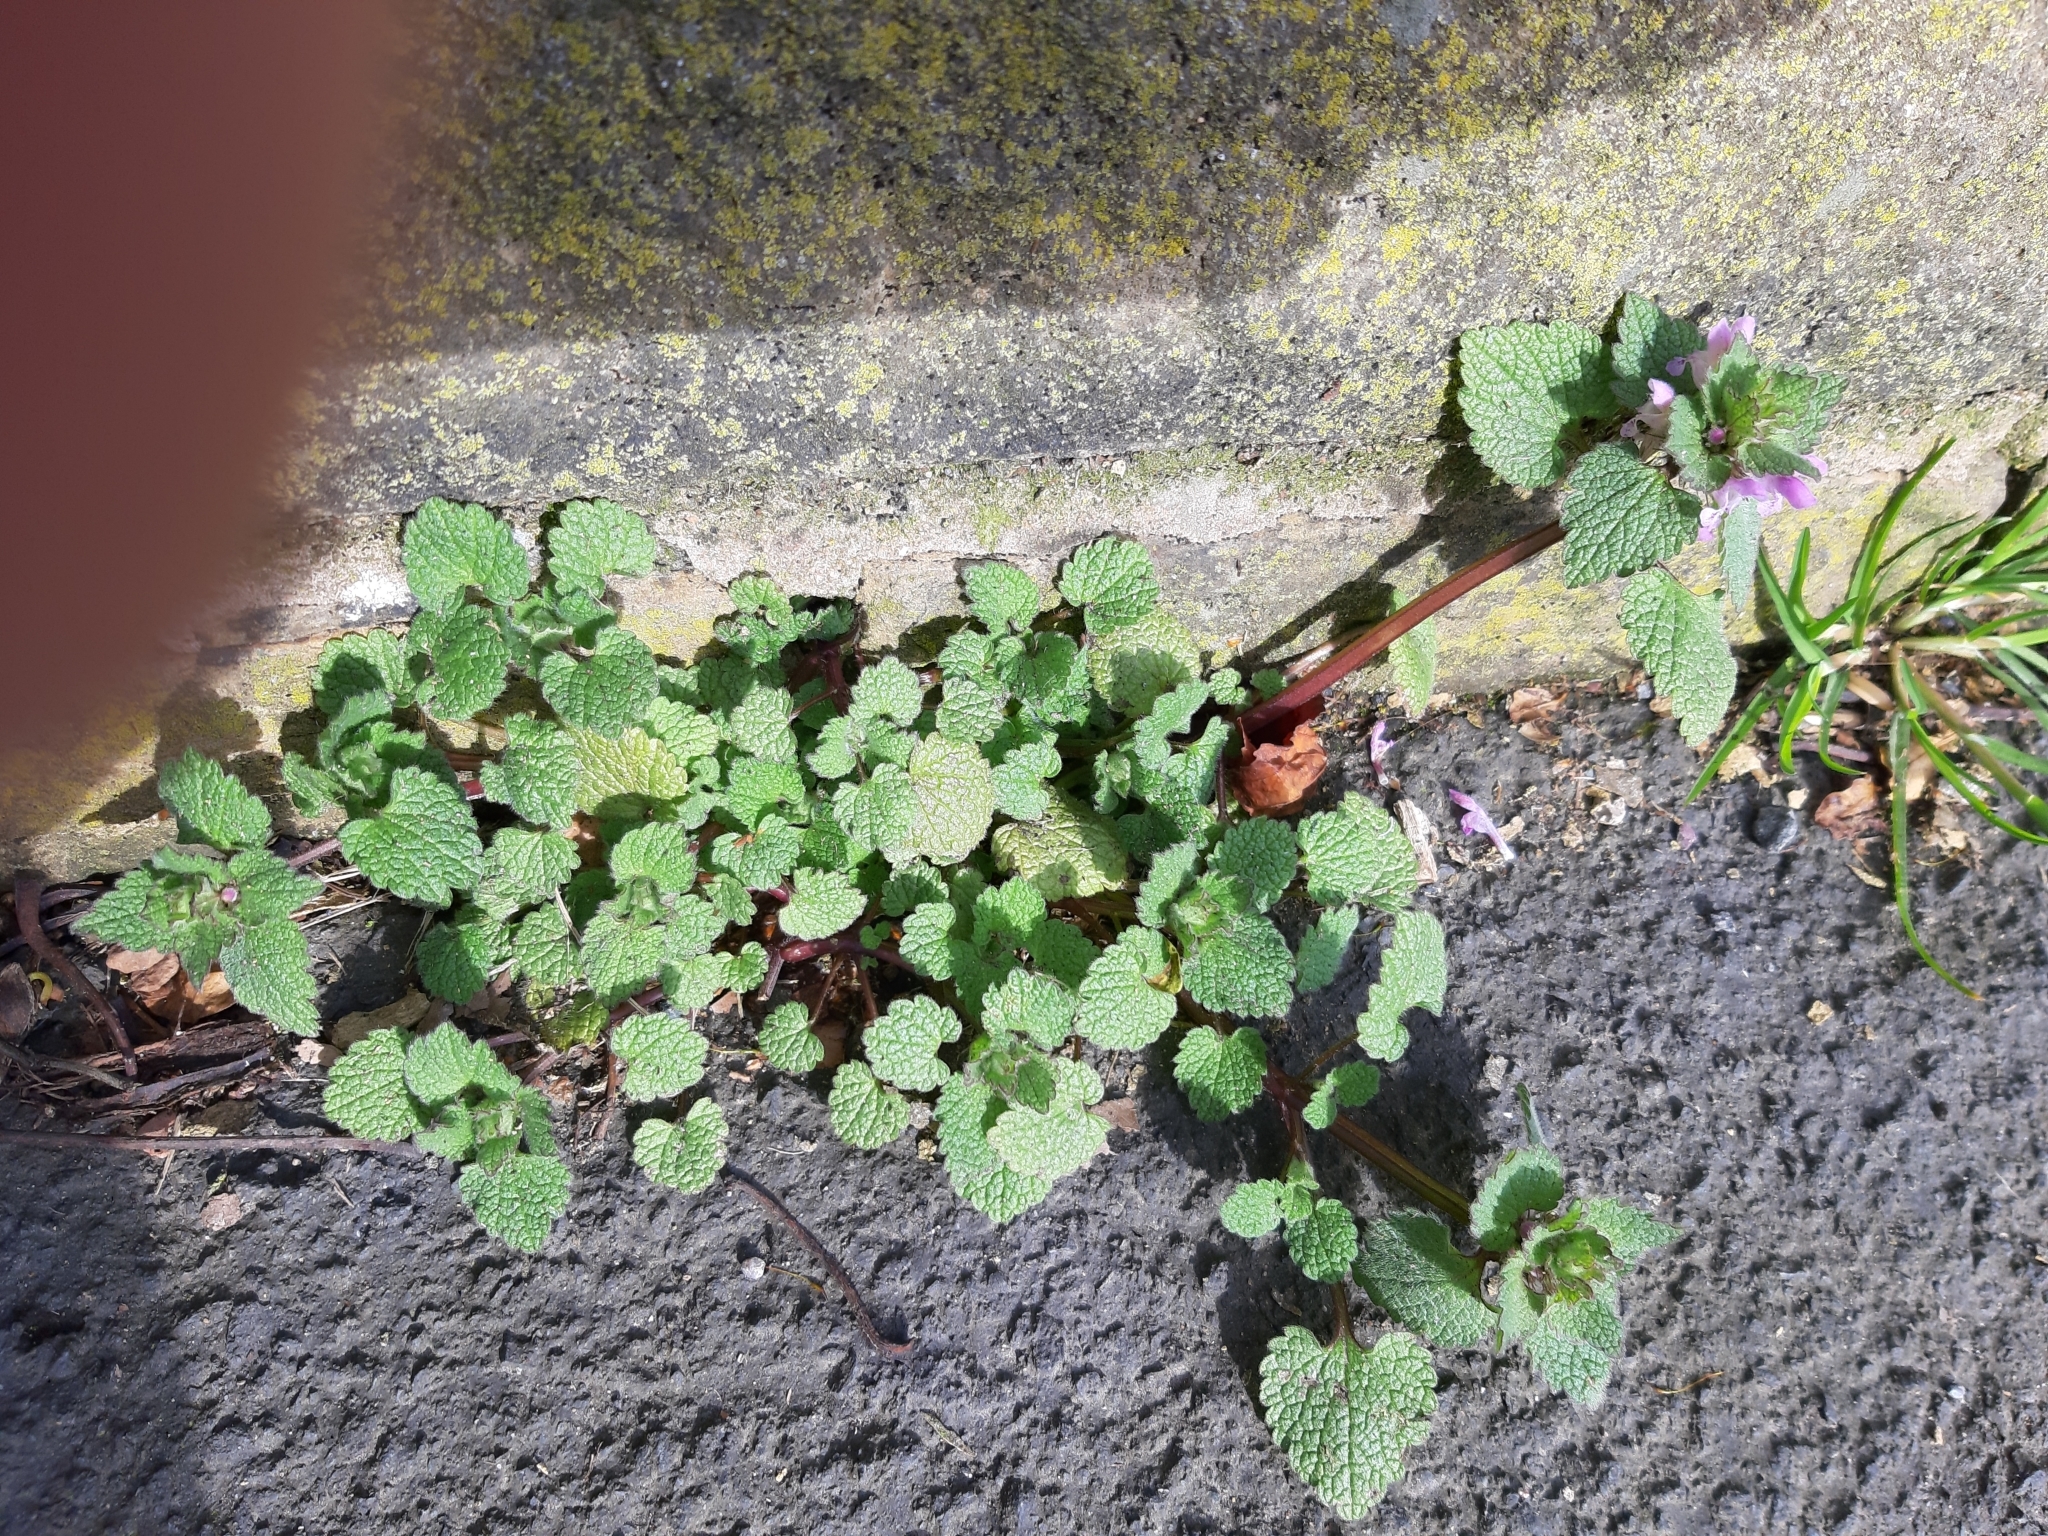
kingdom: Plantae
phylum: Tracheophyta
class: Magnoliopsida
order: Lamiales
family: Lamiaceae
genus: Lamium
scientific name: Lamium purpureum
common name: Red dead-nettle
